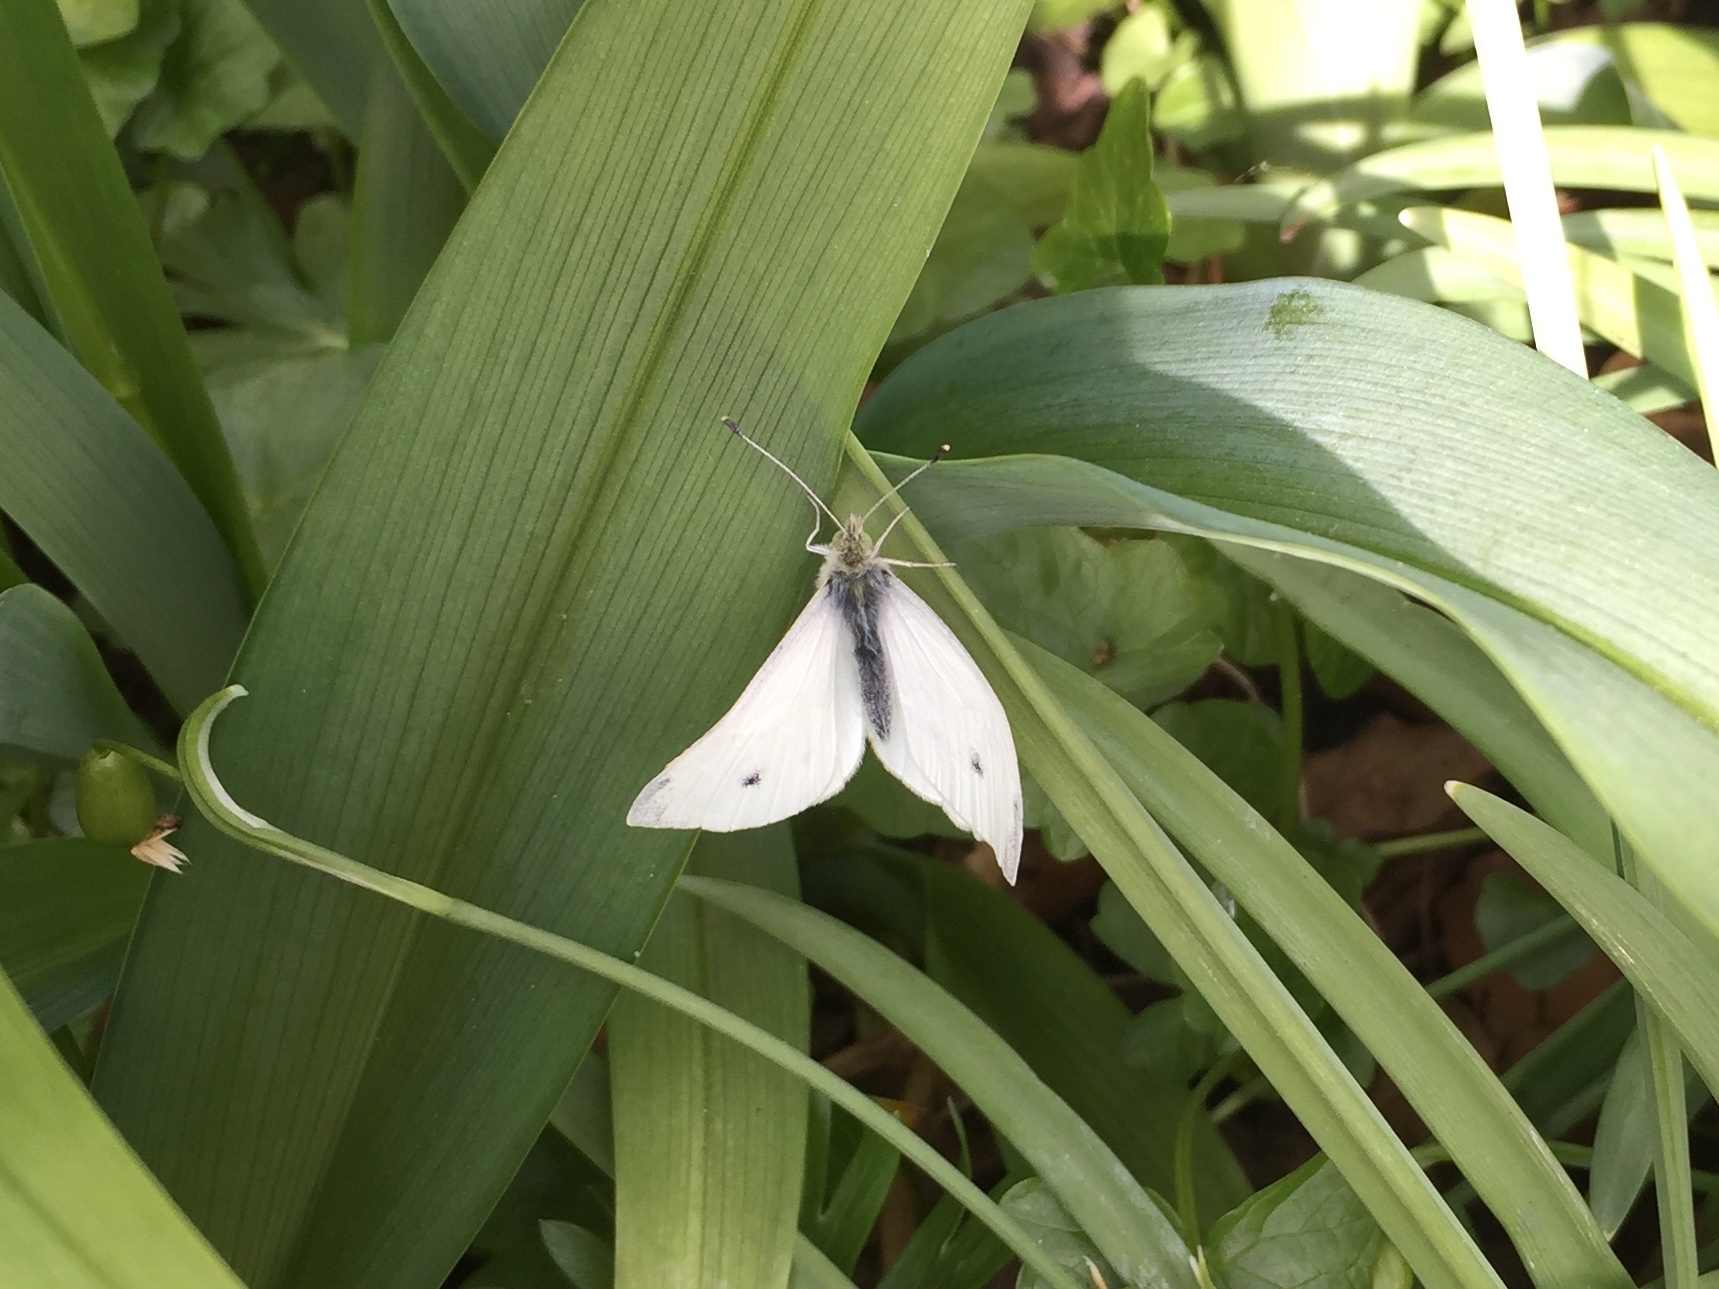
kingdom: Animalia
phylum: Arthropoda
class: Insecta
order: Lepidoptera
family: Pieridae
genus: Pieris
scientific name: Pieris rapae
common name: Small white
